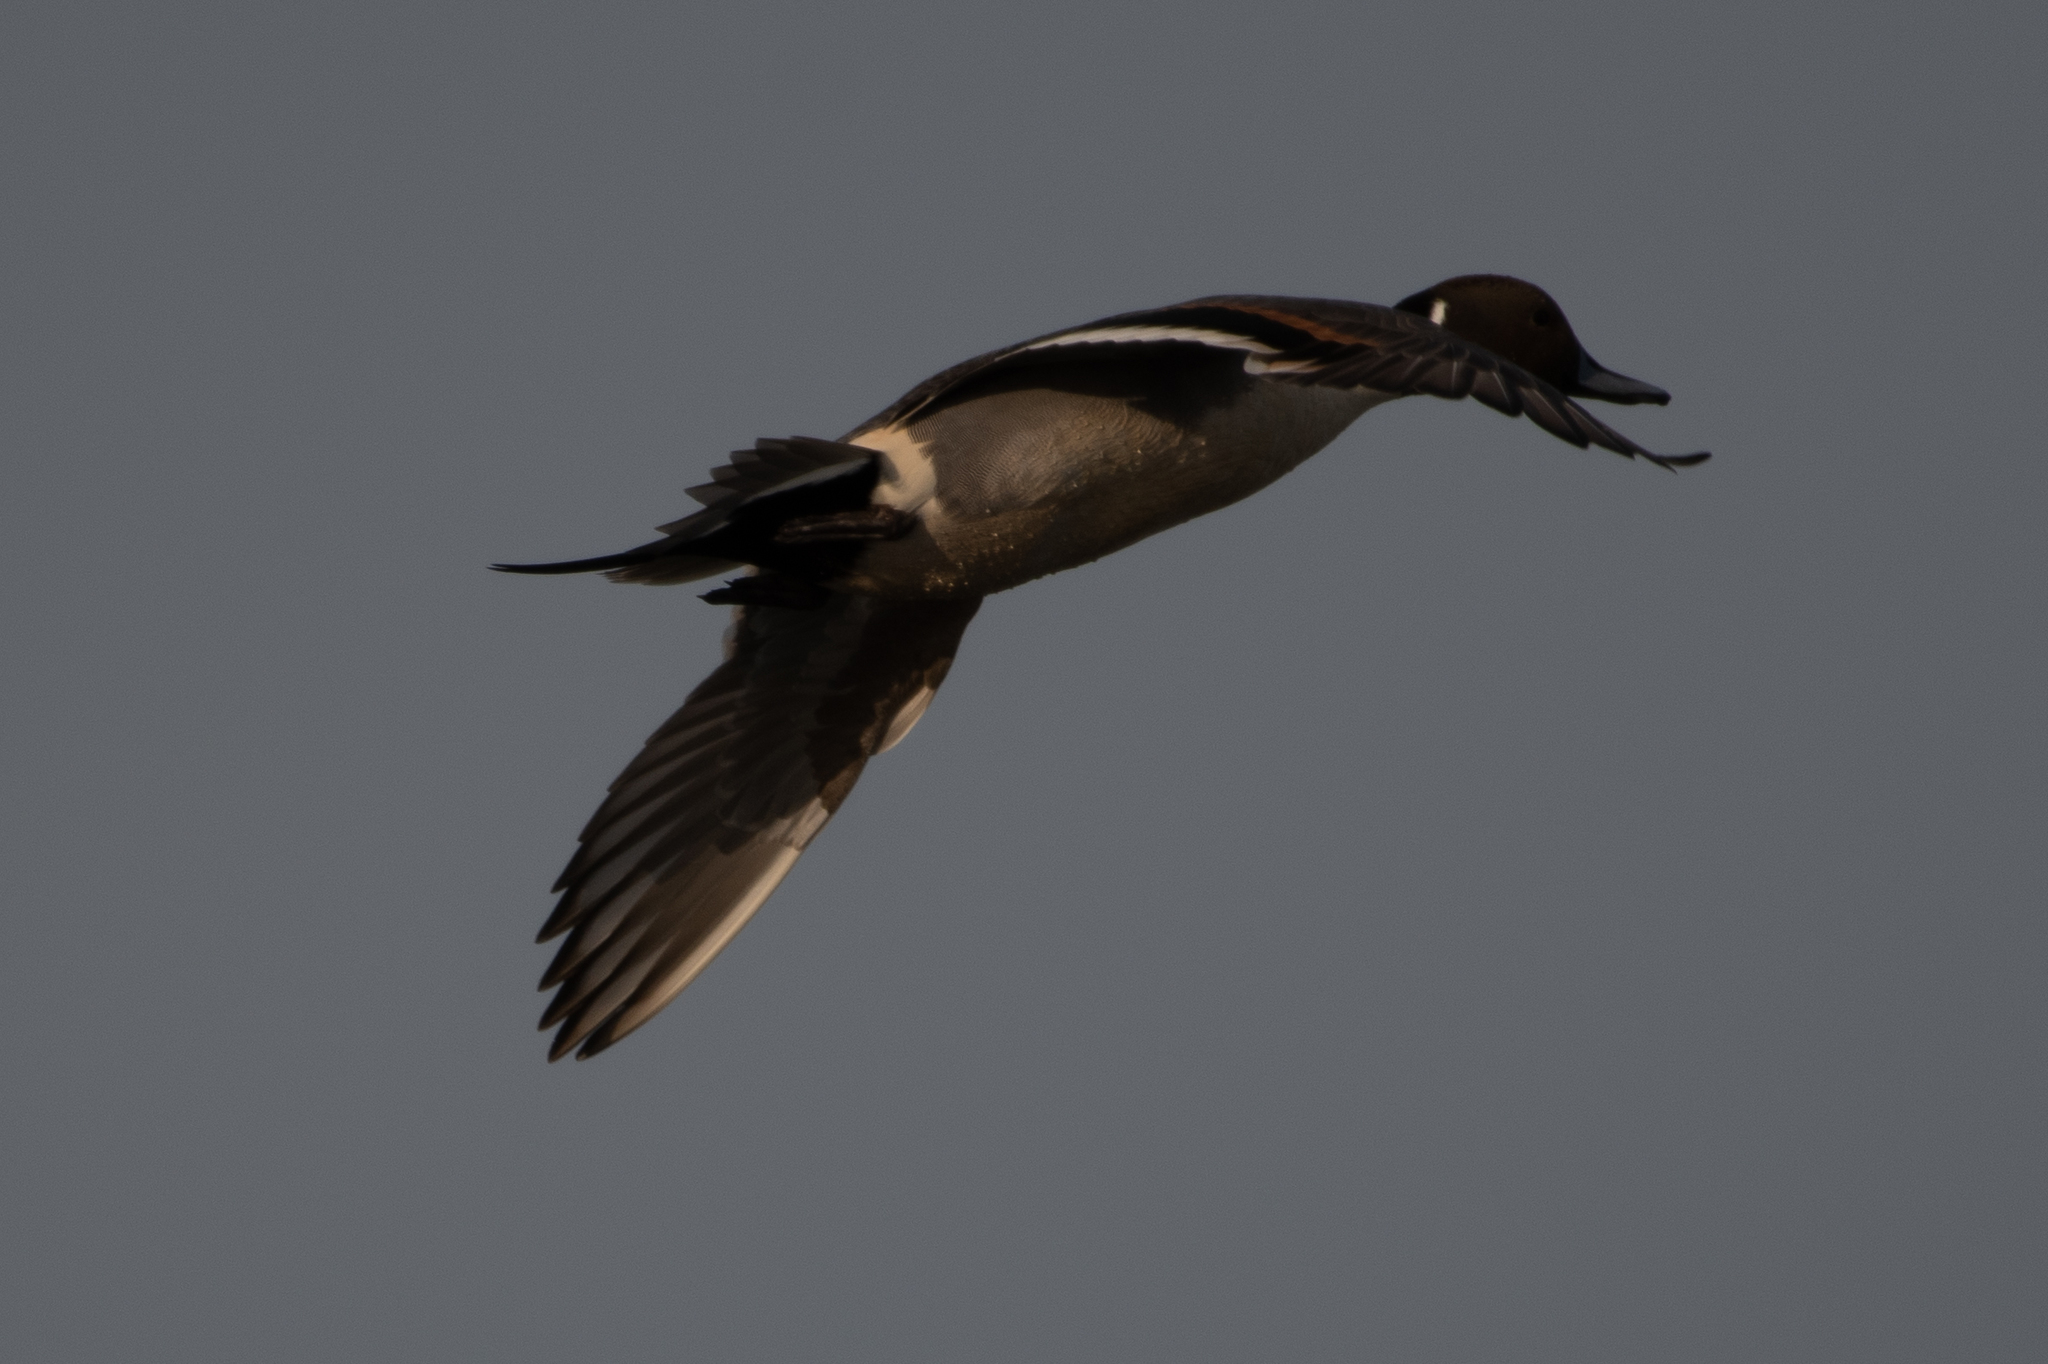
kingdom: Animalia
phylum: Chordata
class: Aves
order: Anseriformes
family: Anatidae
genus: Anas
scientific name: Anas acuta
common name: Northern pintail
